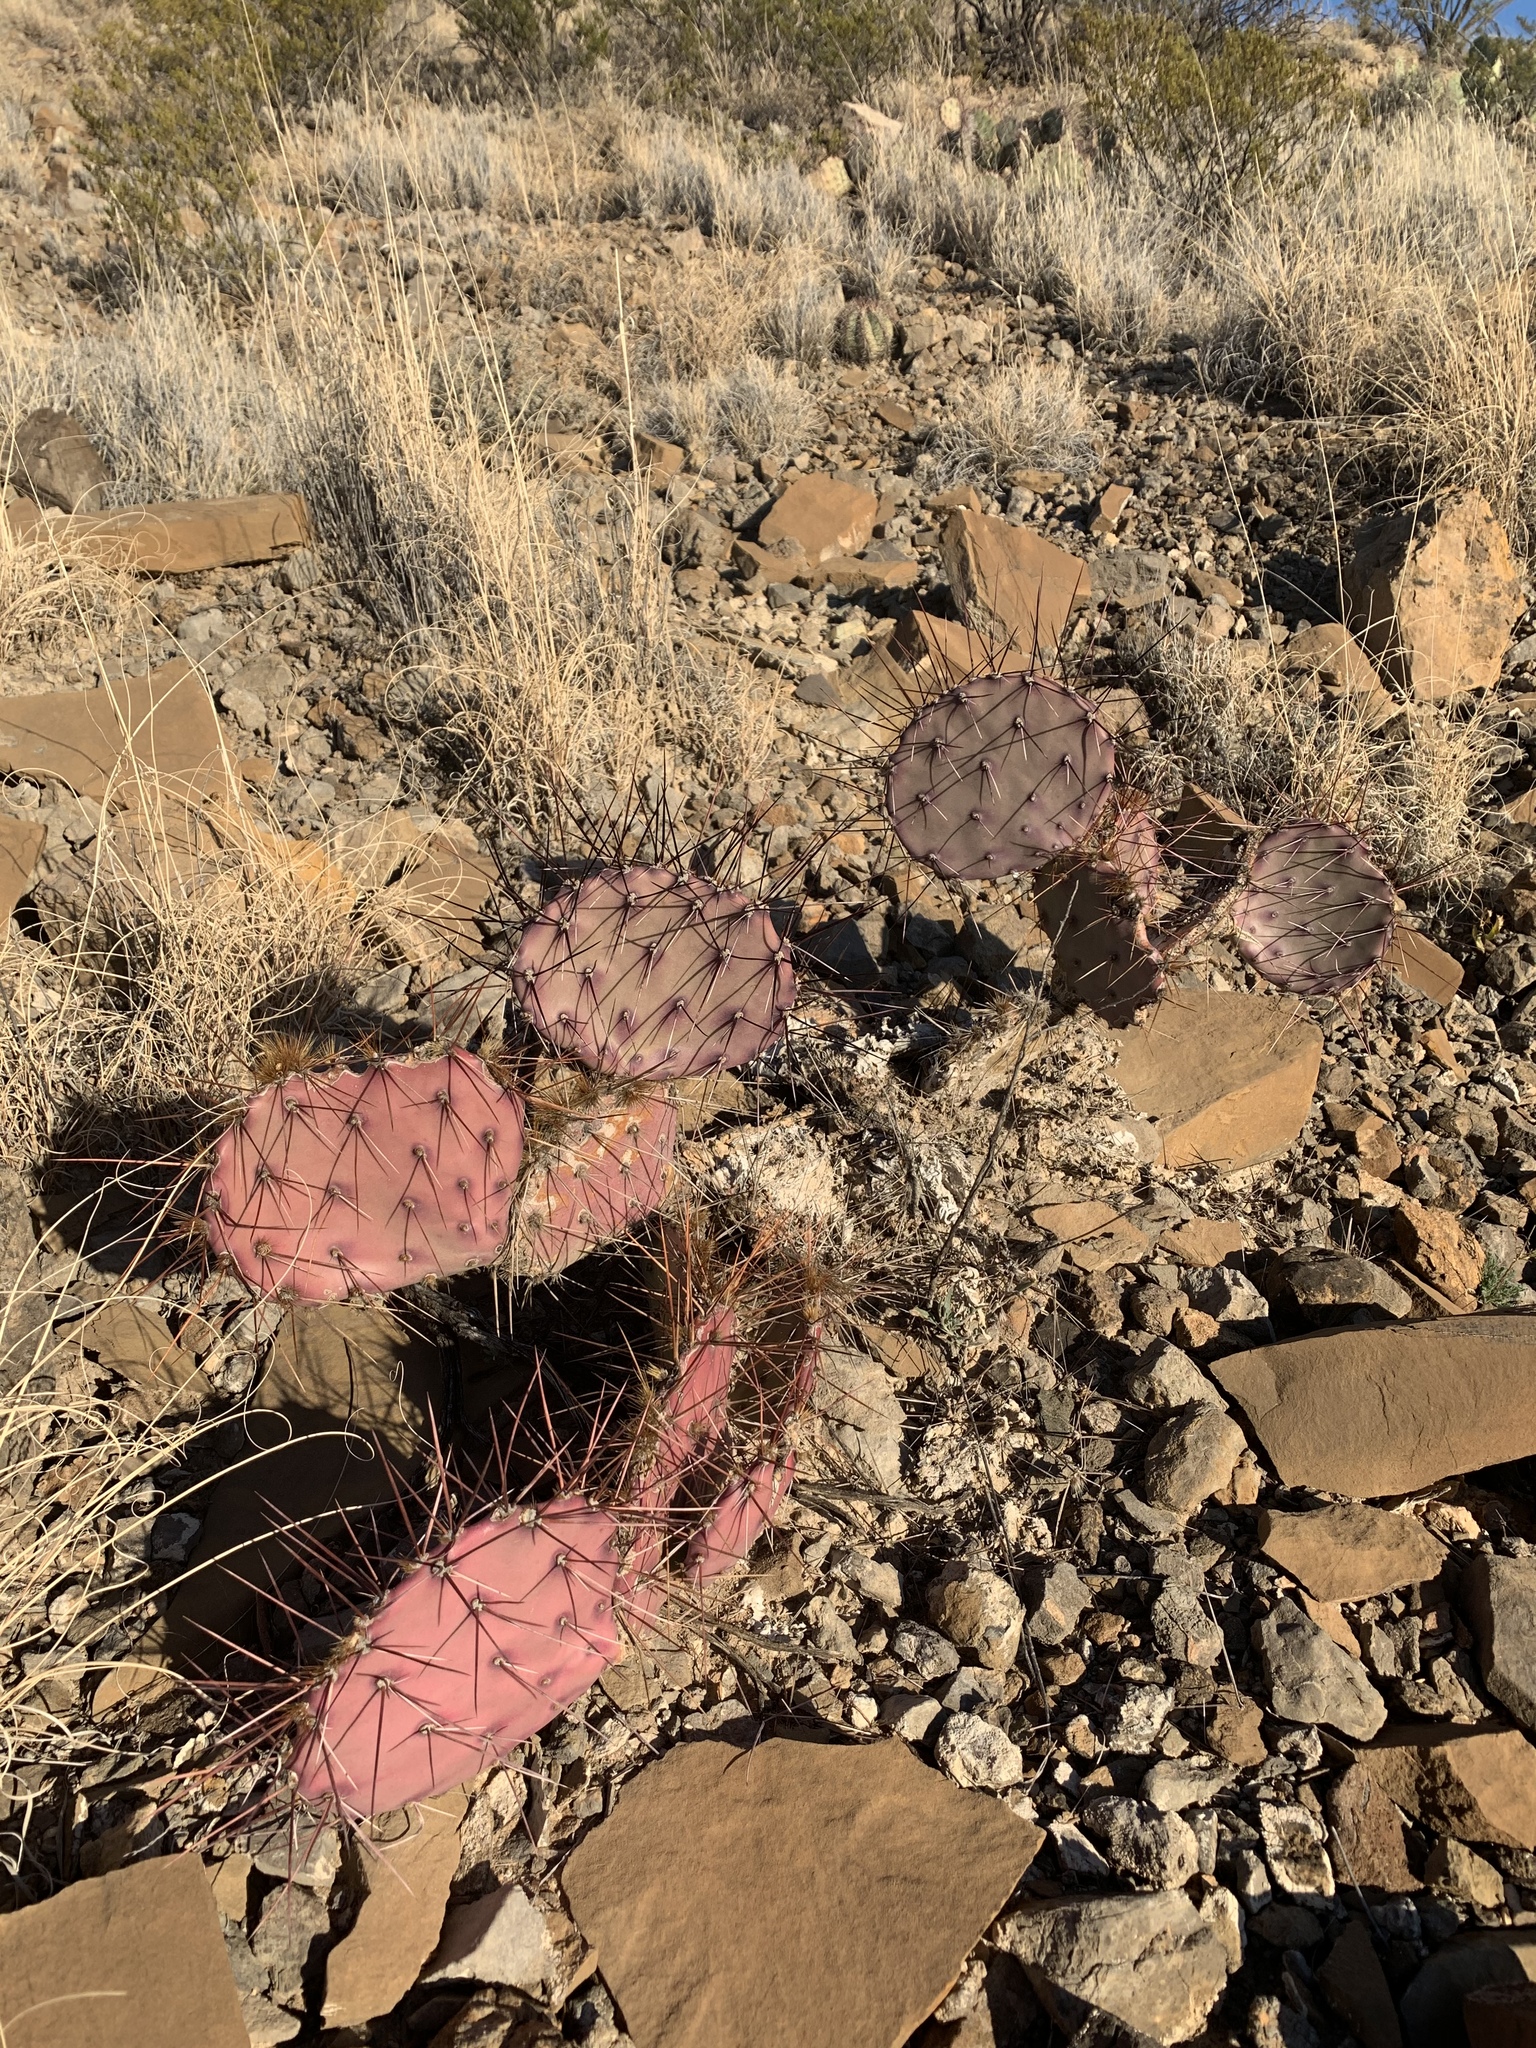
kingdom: Plantae
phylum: Tracheophyta
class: Magnoliopsida
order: Caryophyllales
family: Cactaceae
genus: Opuntia
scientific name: Opuntia macrocentra
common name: Purple prickly-pear
